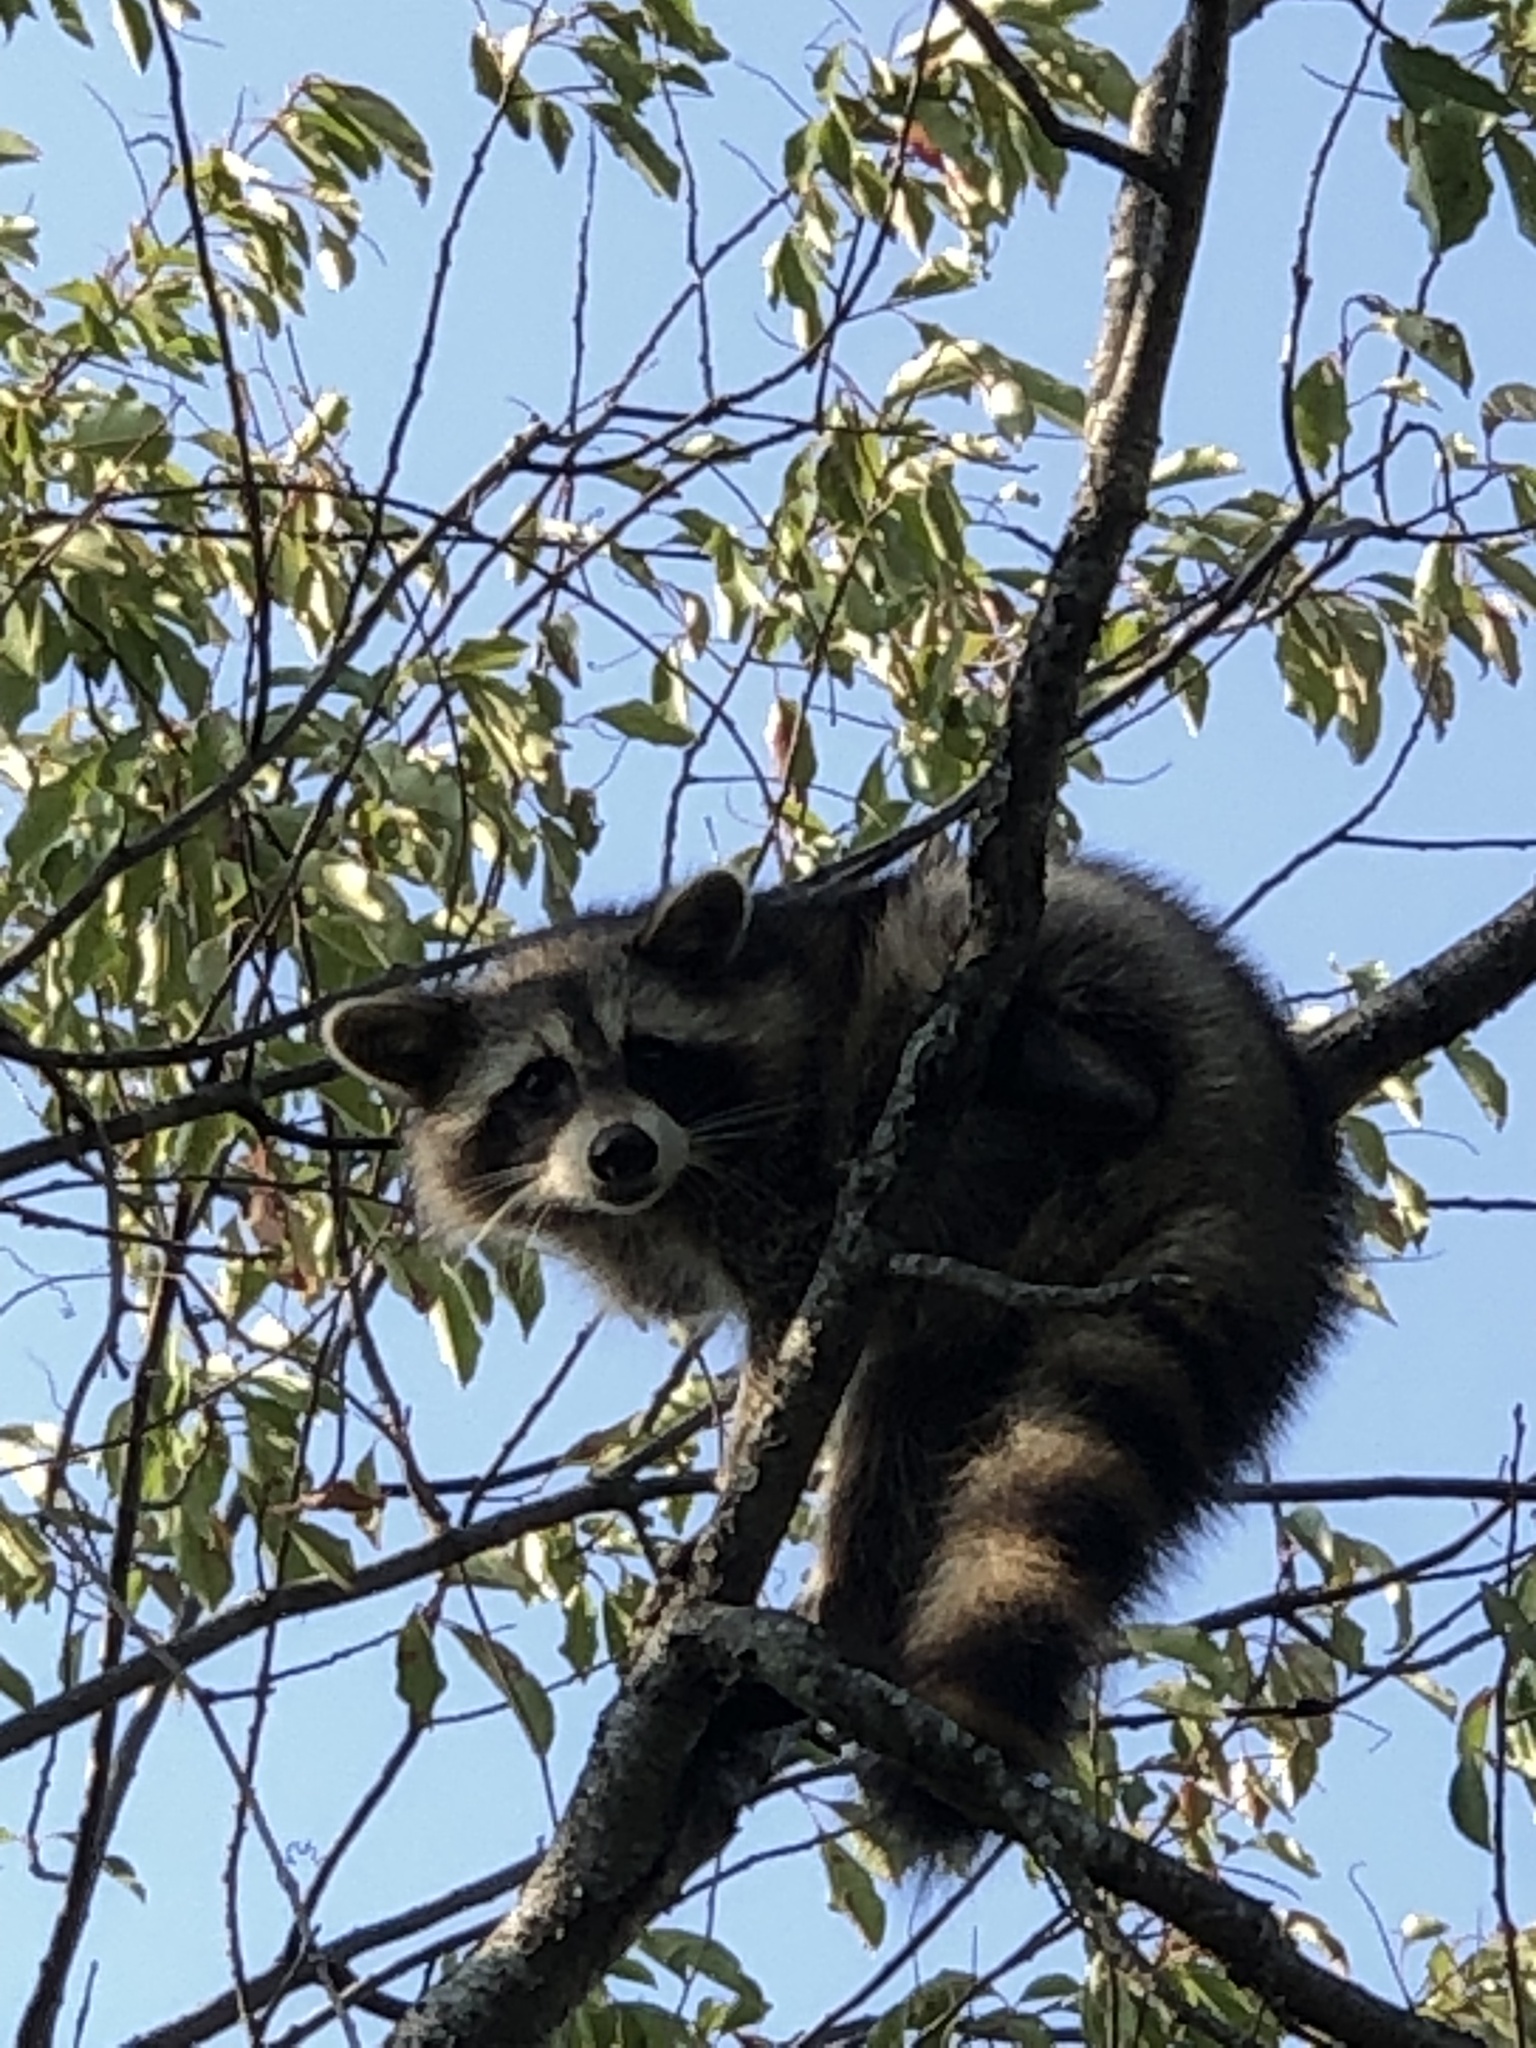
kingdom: Animalia
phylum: Chordata
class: Mammalia
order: Carnivora
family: Procyonidae
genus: Procyon
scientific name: Procyon lotor
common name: Raccoon
